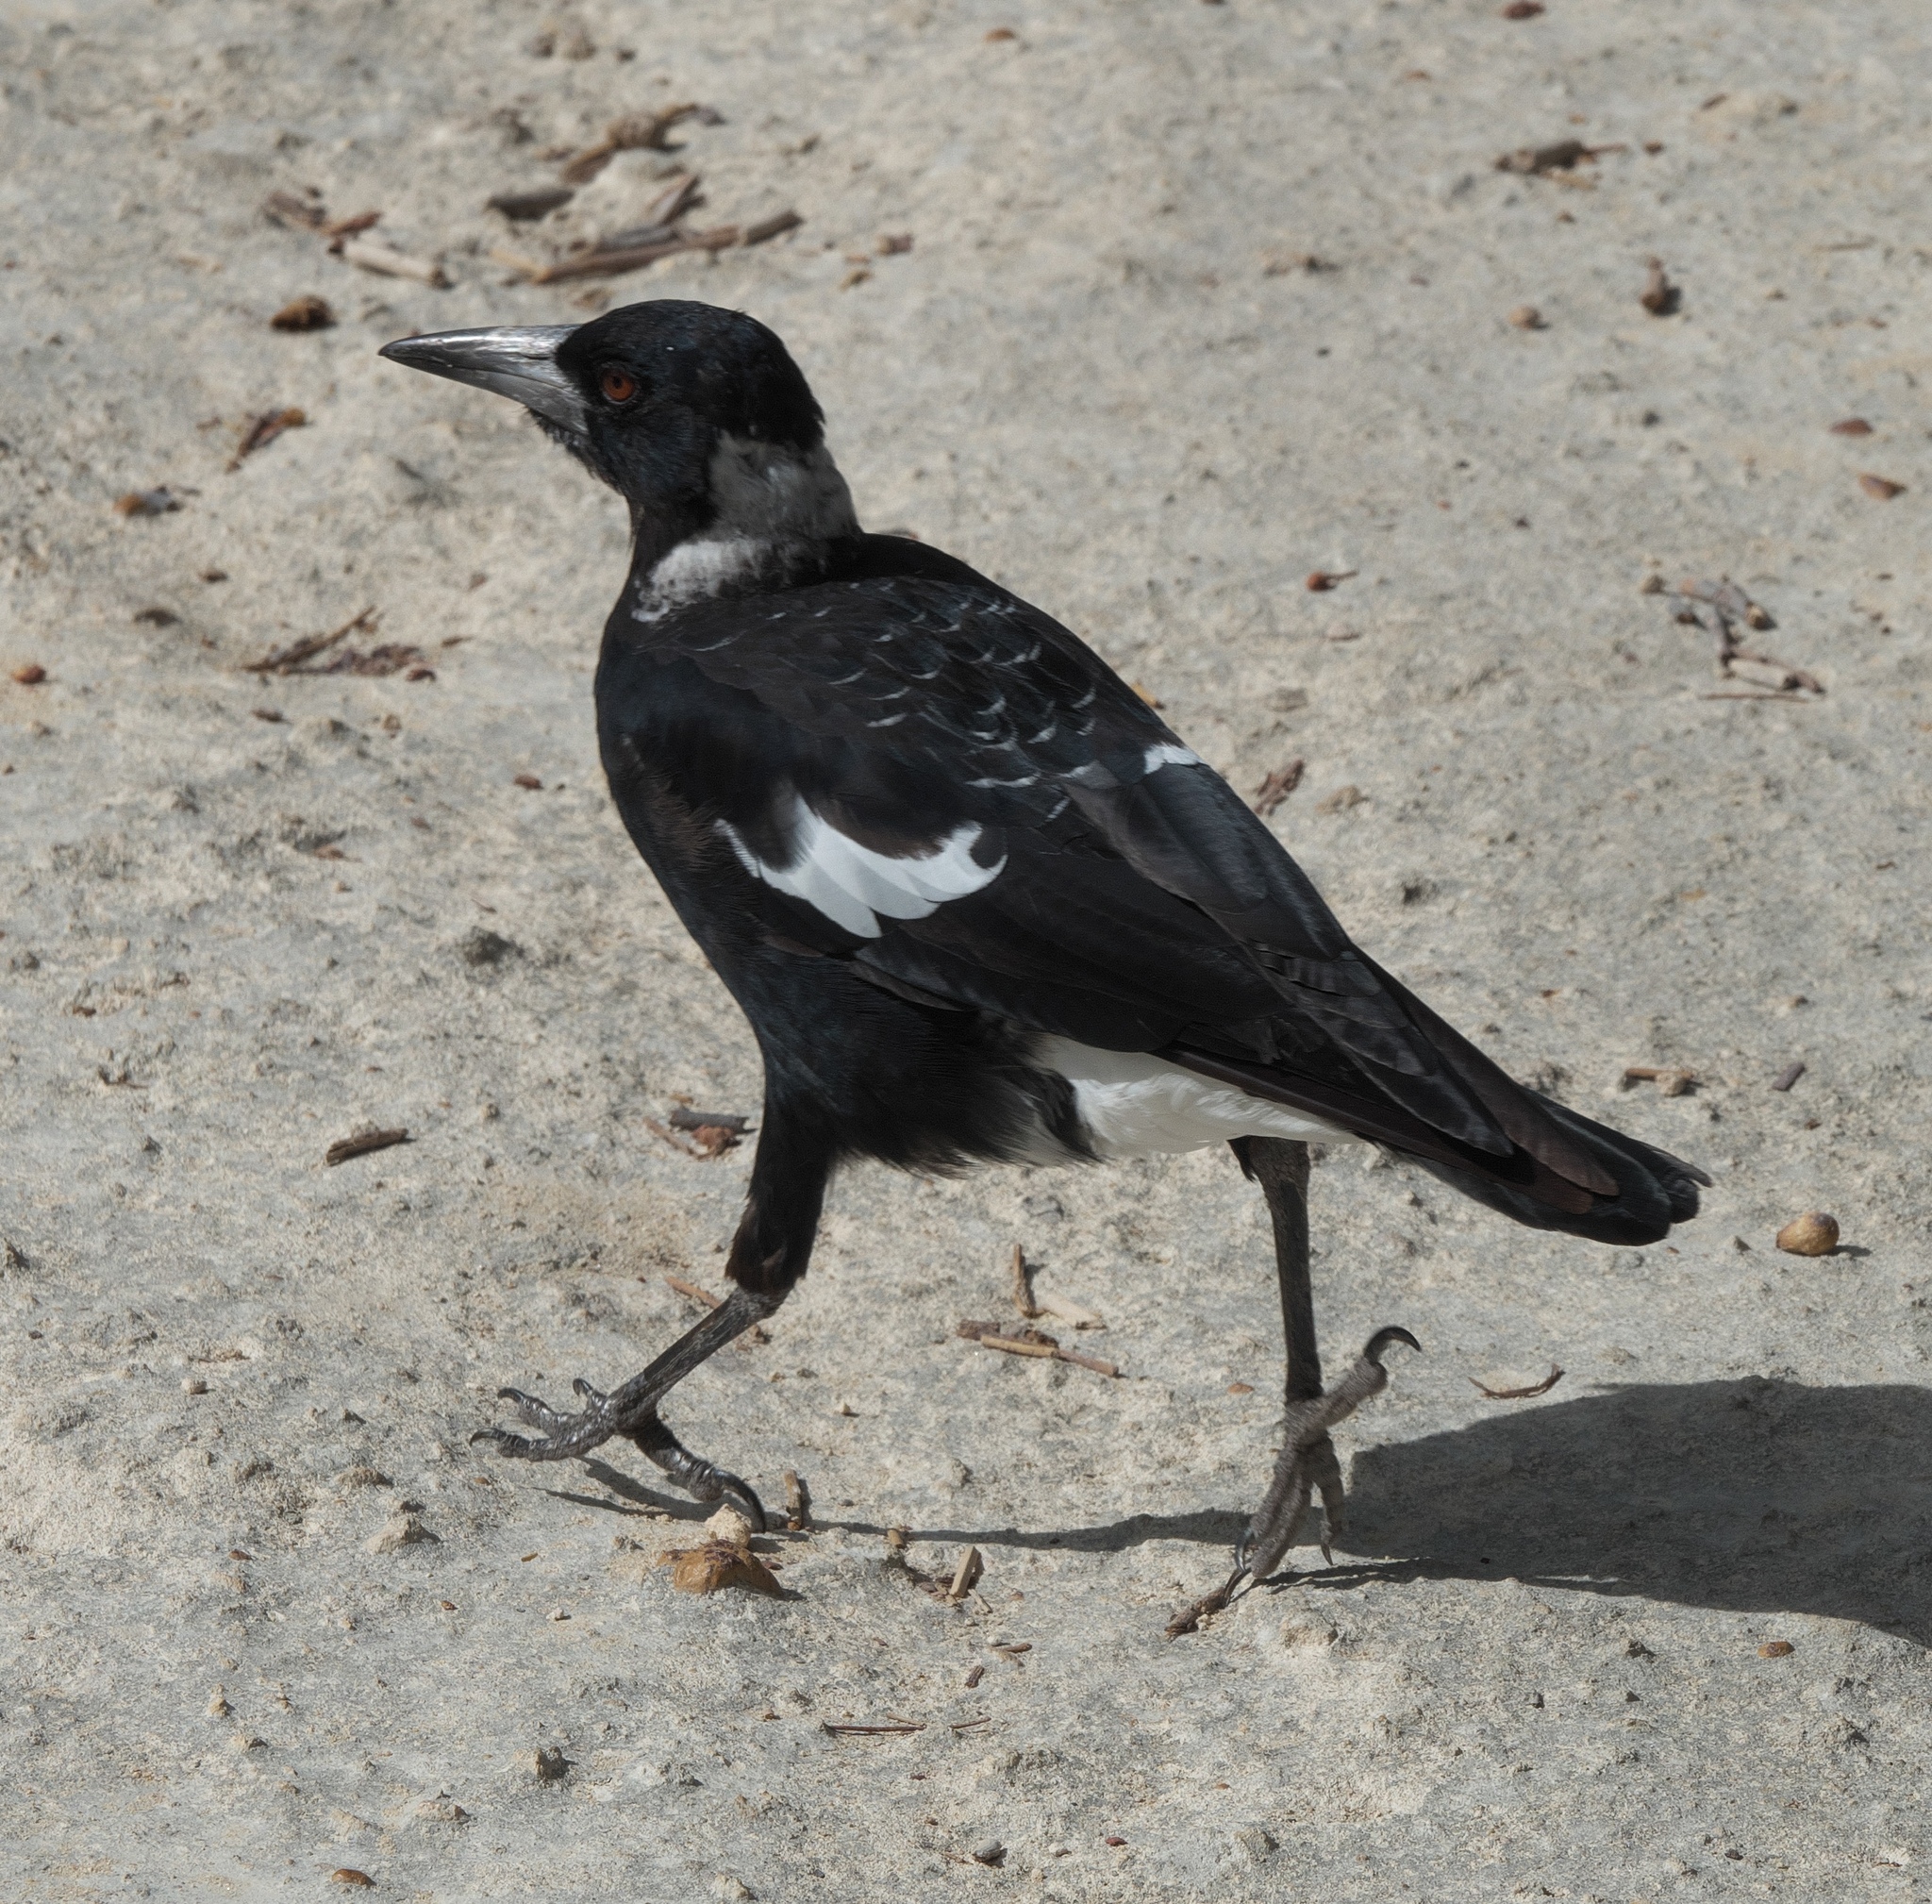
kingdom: Animalia
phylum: Chordata
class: Aves
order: Passeriformes
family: Cracticidae
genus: Gymnorhina
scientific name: Gymnorhina tibicen
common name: Australian magpie
